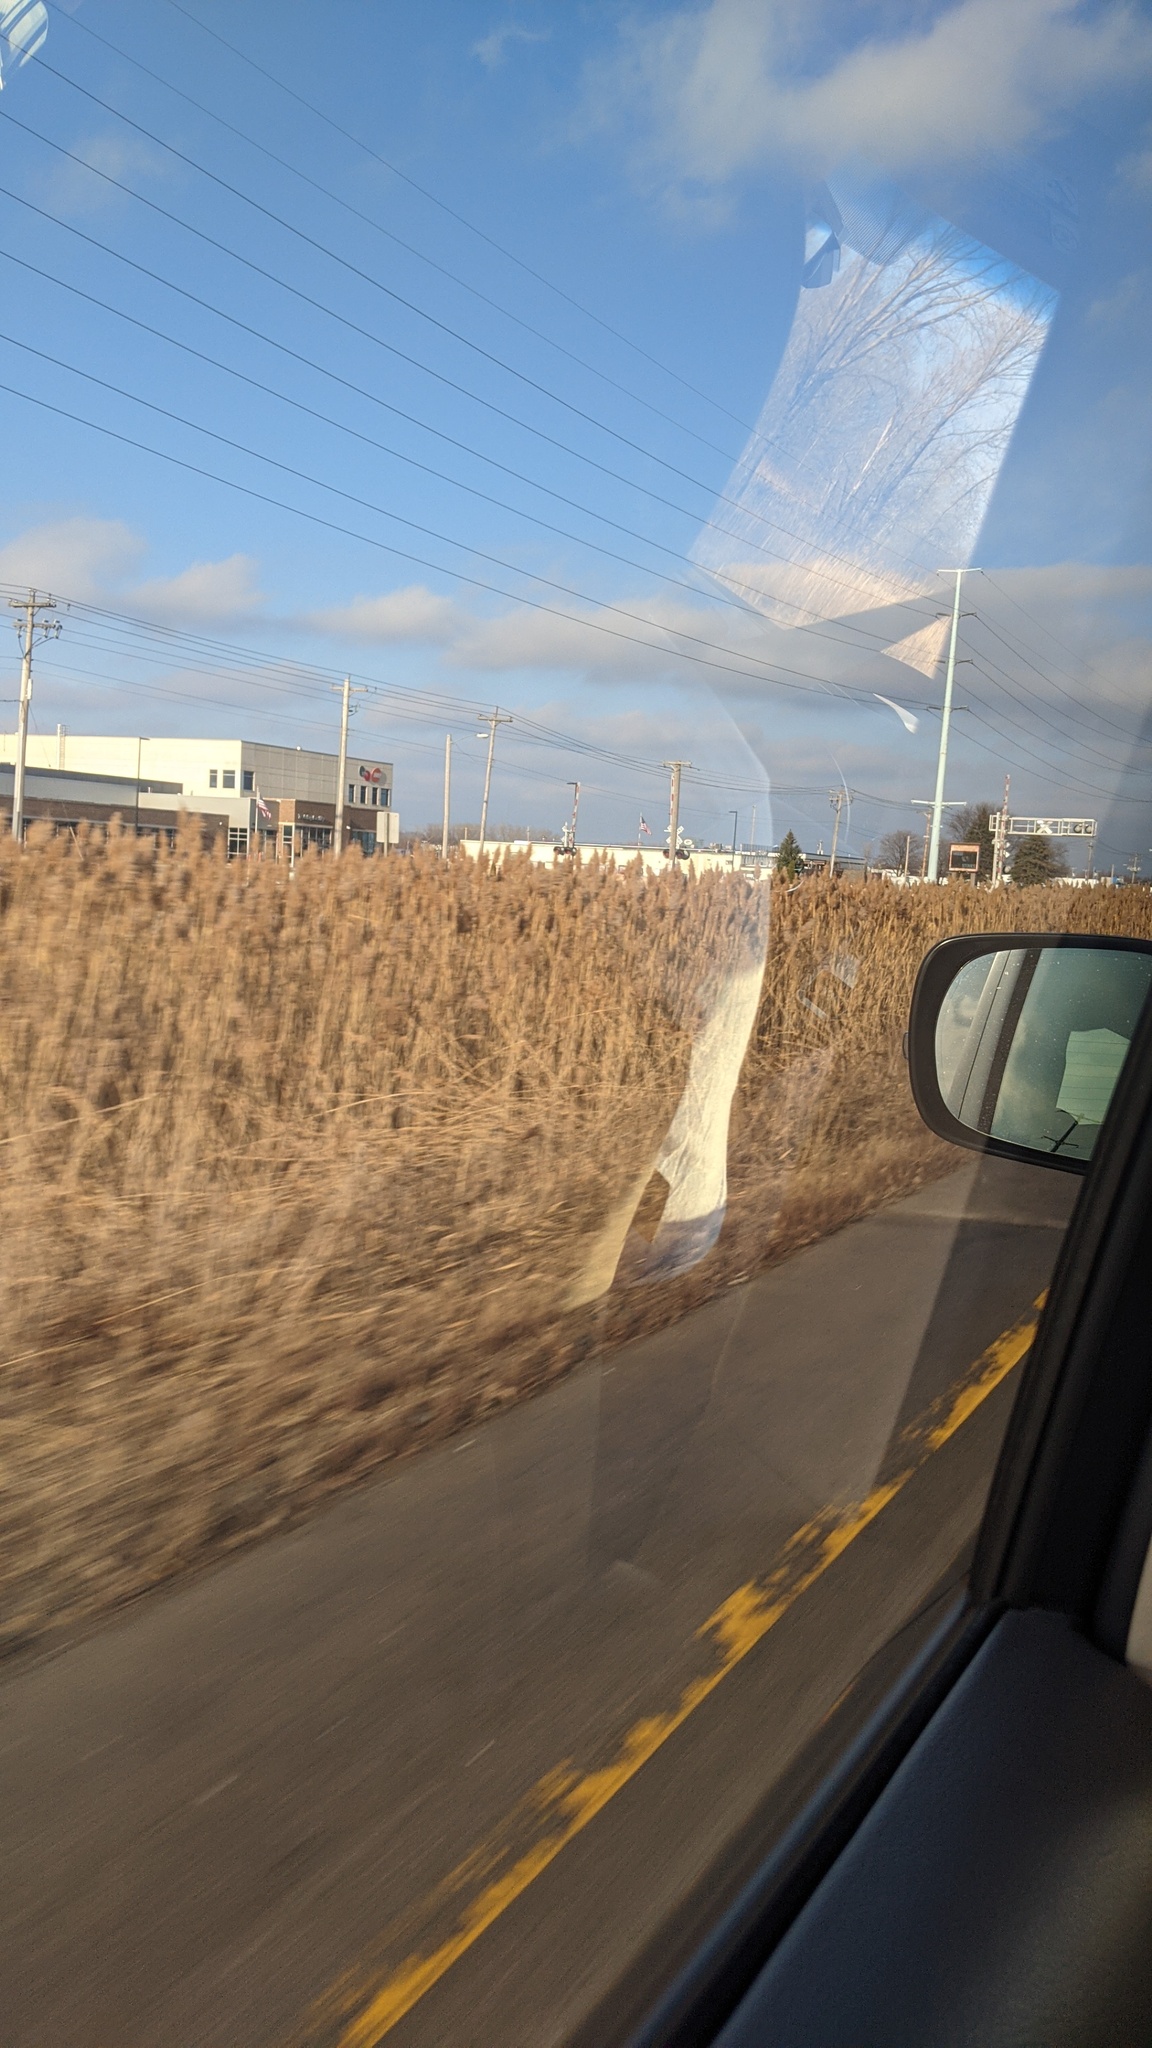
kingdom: Plantae
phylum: Tracheophyta
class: Liliopsida
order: Poales
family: Poaceae
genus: Phragmites
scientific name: Phragmites australis
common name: Common reed
